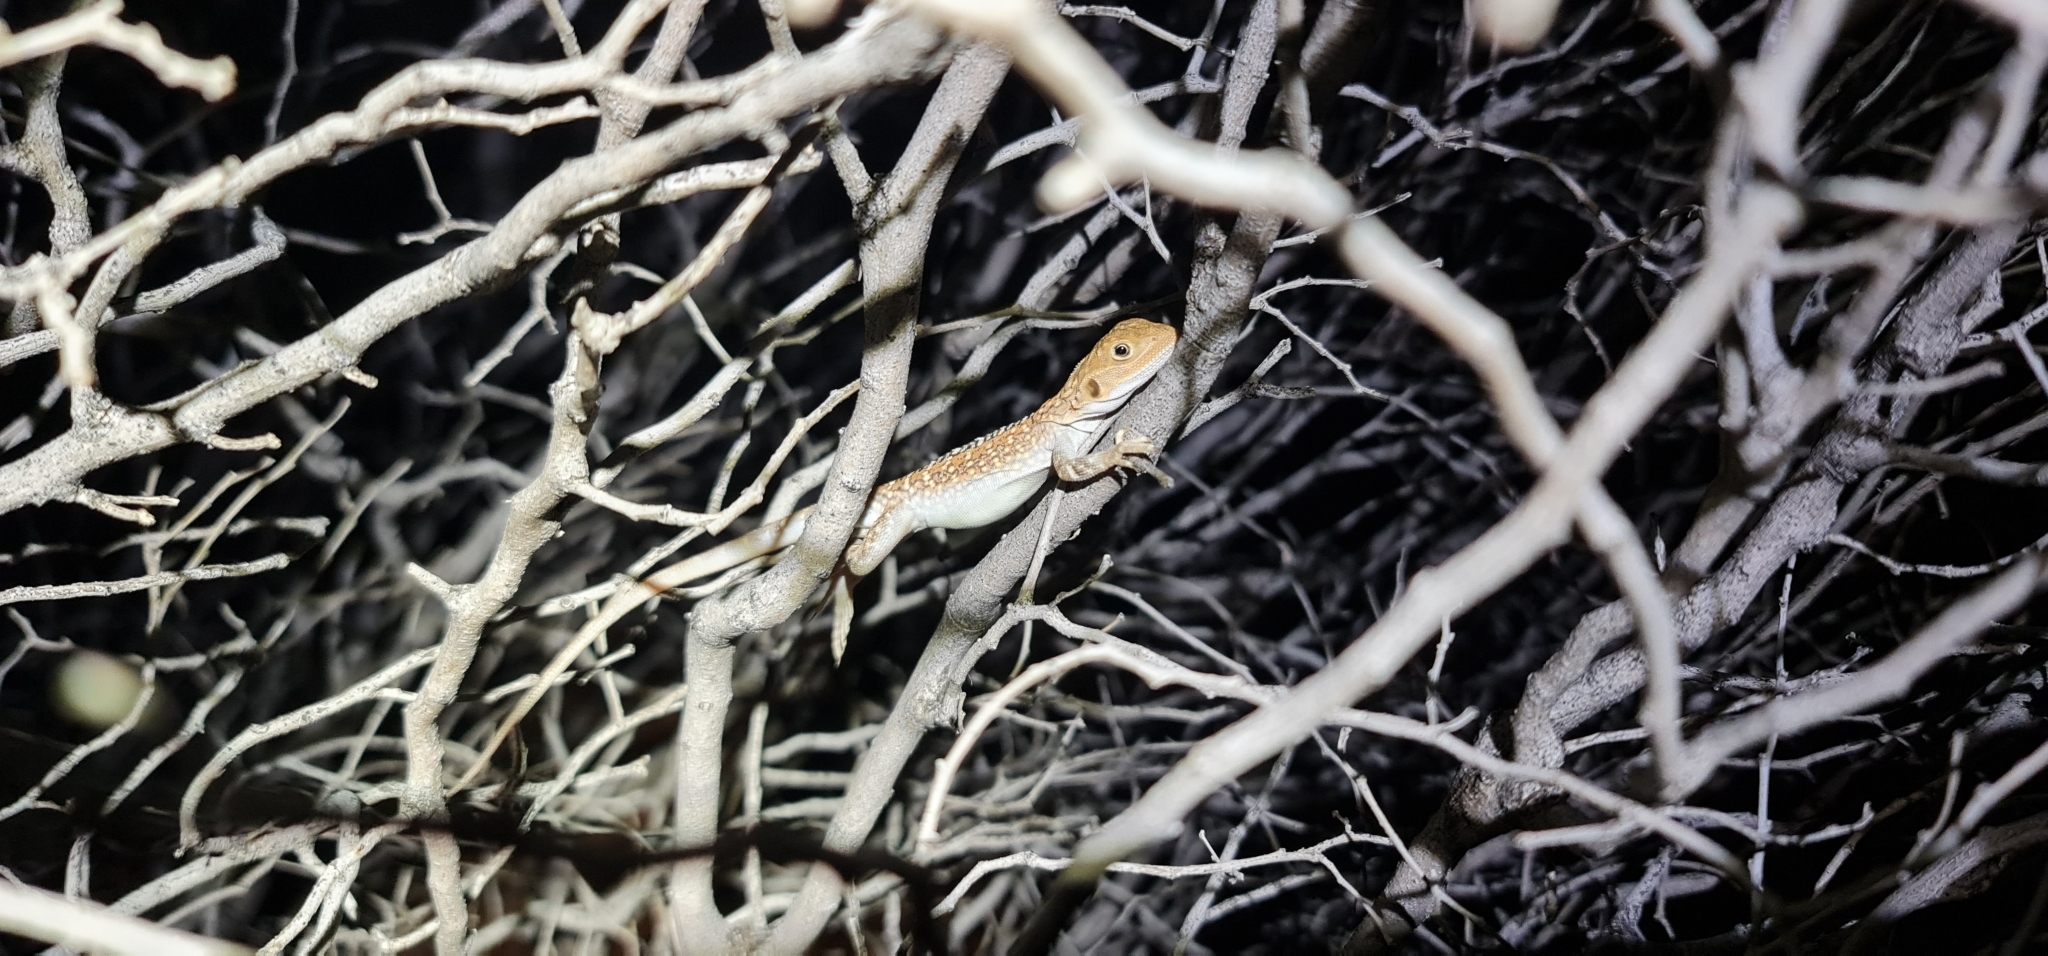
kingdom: Animalia
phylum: Chordata
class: Squamata
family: Agamidae
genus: Ctenophorus
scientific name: Ctenophorus pictus
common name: Painted dragon
